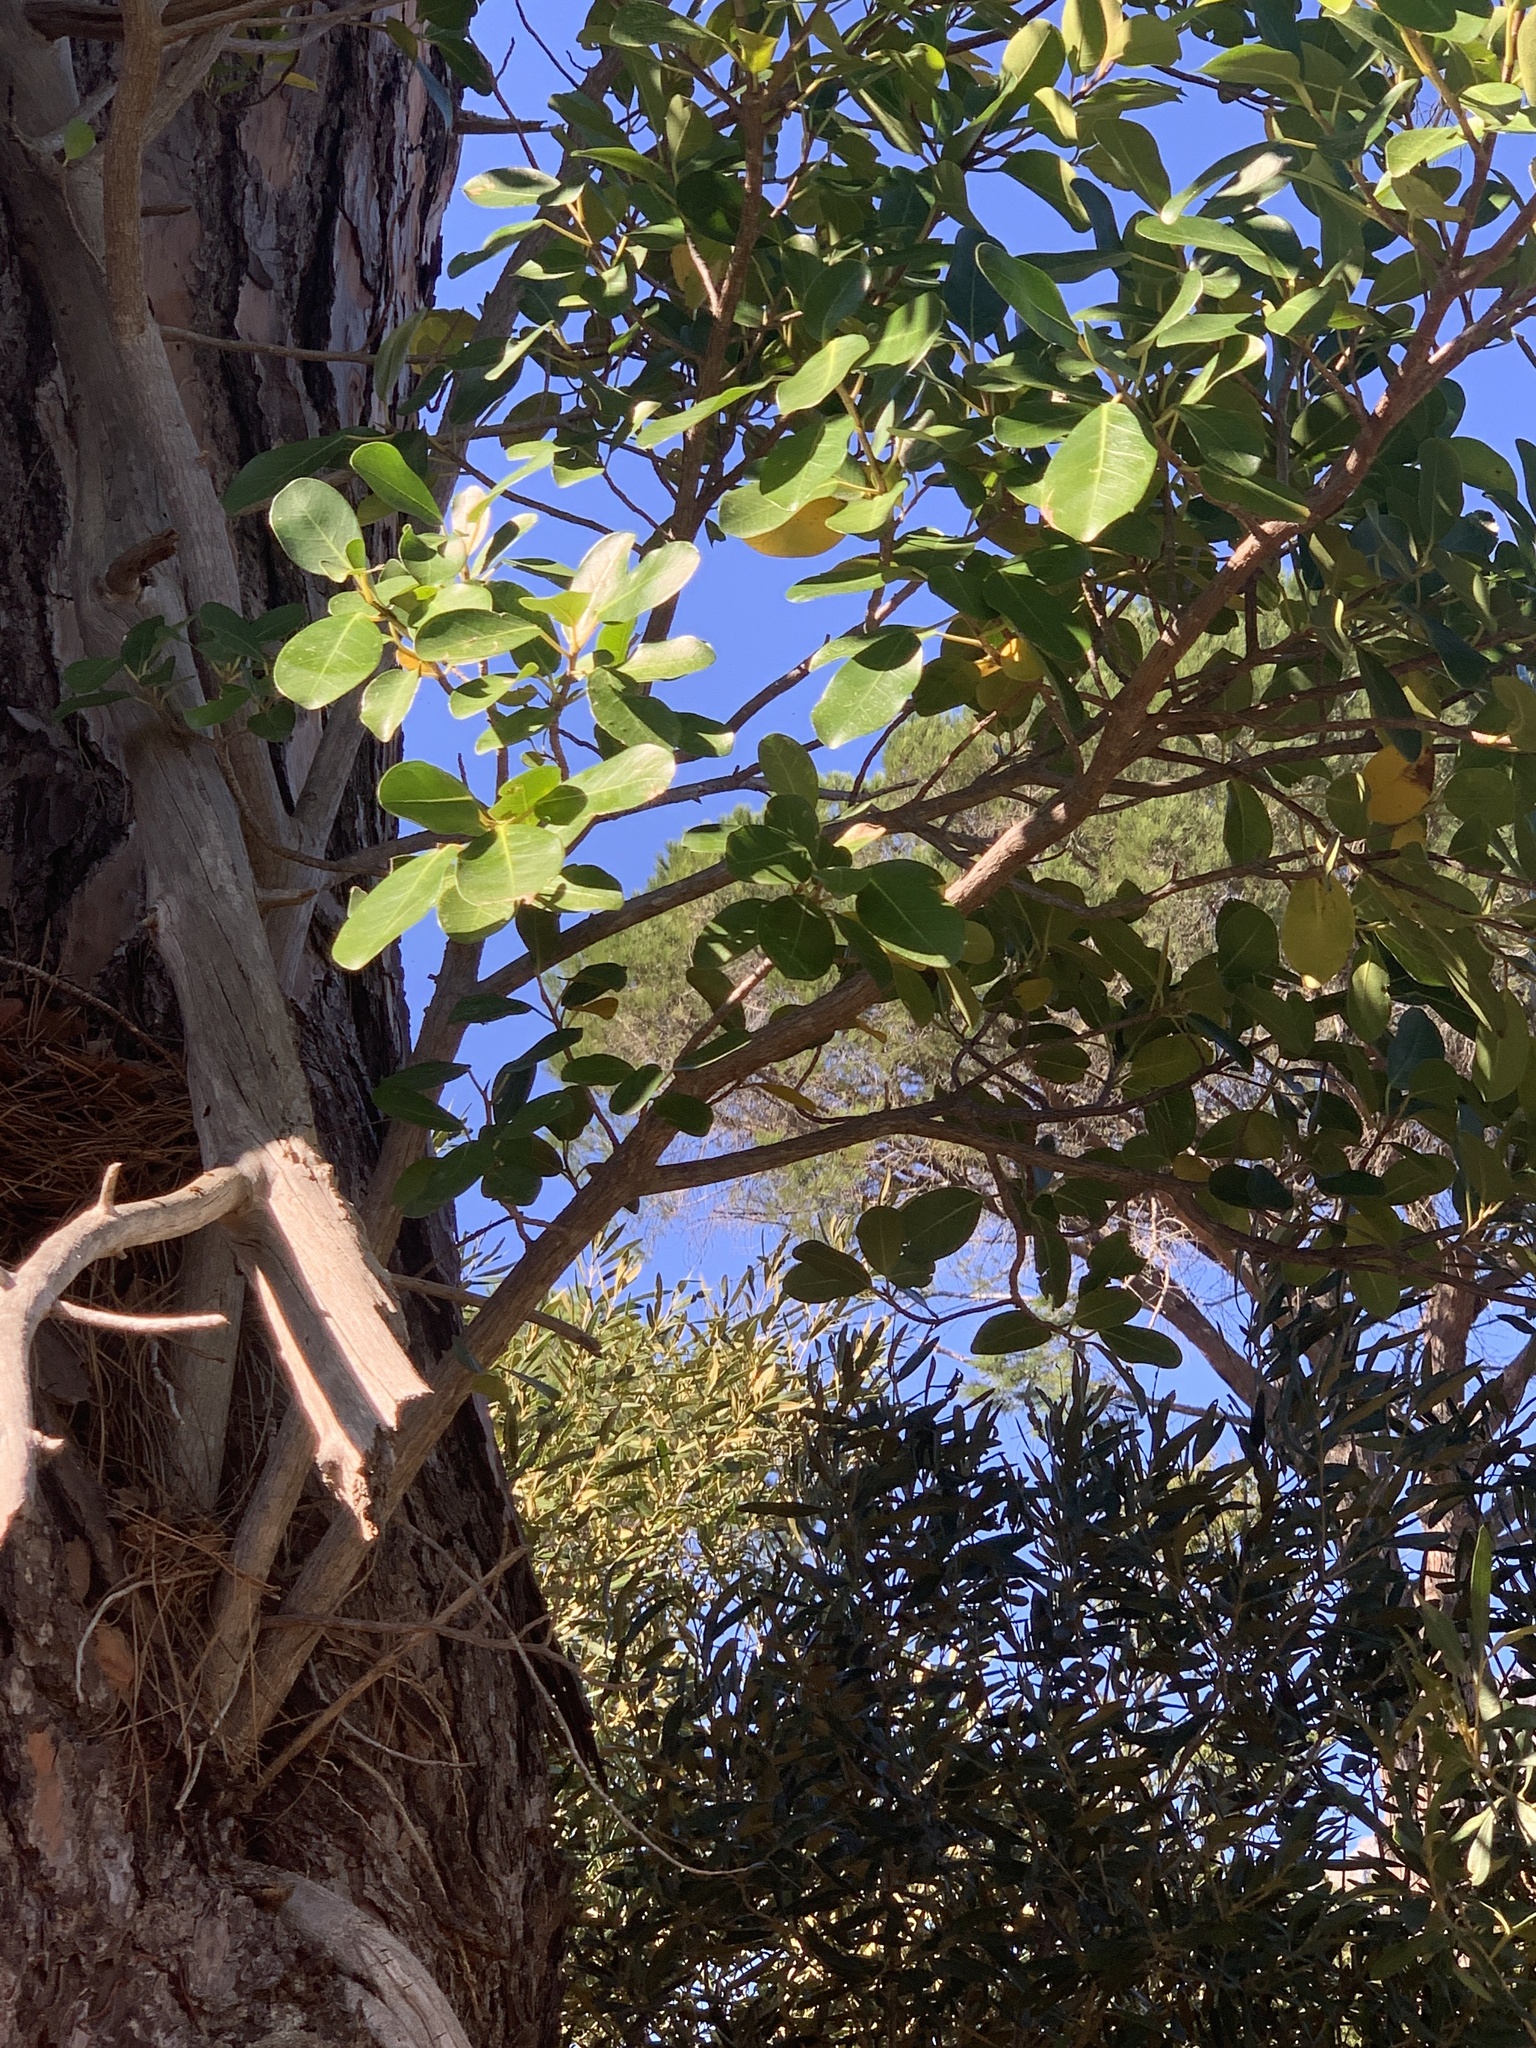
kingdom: Plantae
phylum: Tracheophyta
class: Magnoliopsida
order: Rosales
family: Moraceae
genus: Ficus
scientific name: Ficus thonningii
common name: Fig
